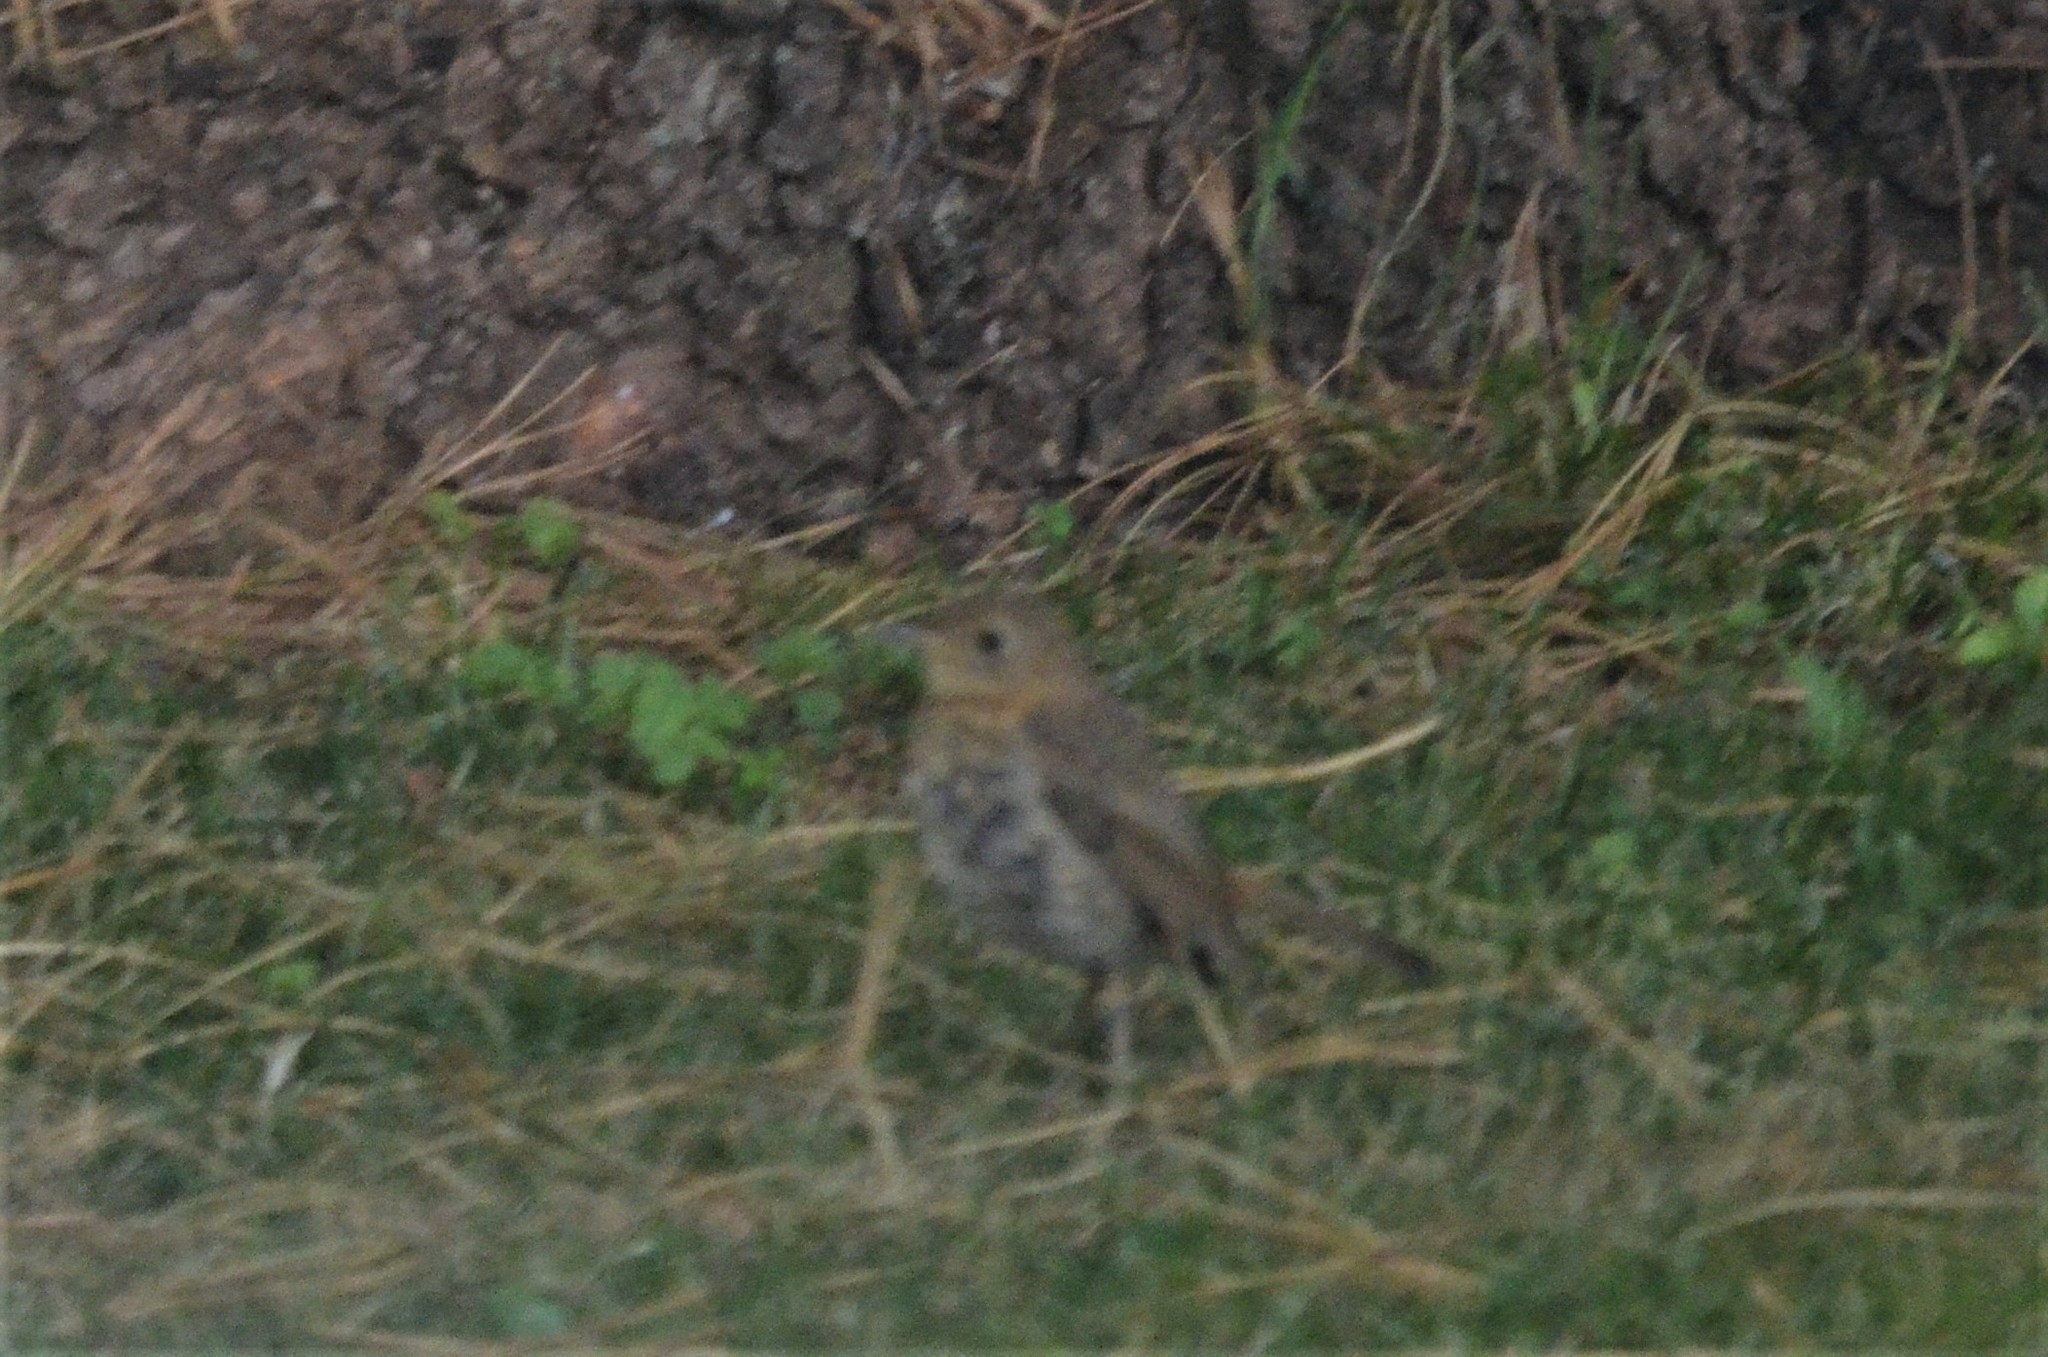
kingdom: Animalia
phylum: Chordata
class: Aves
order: Passeriformes
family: Muscicapidae
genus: Erithacus
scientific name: Erithacus rubecula
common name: European robin
